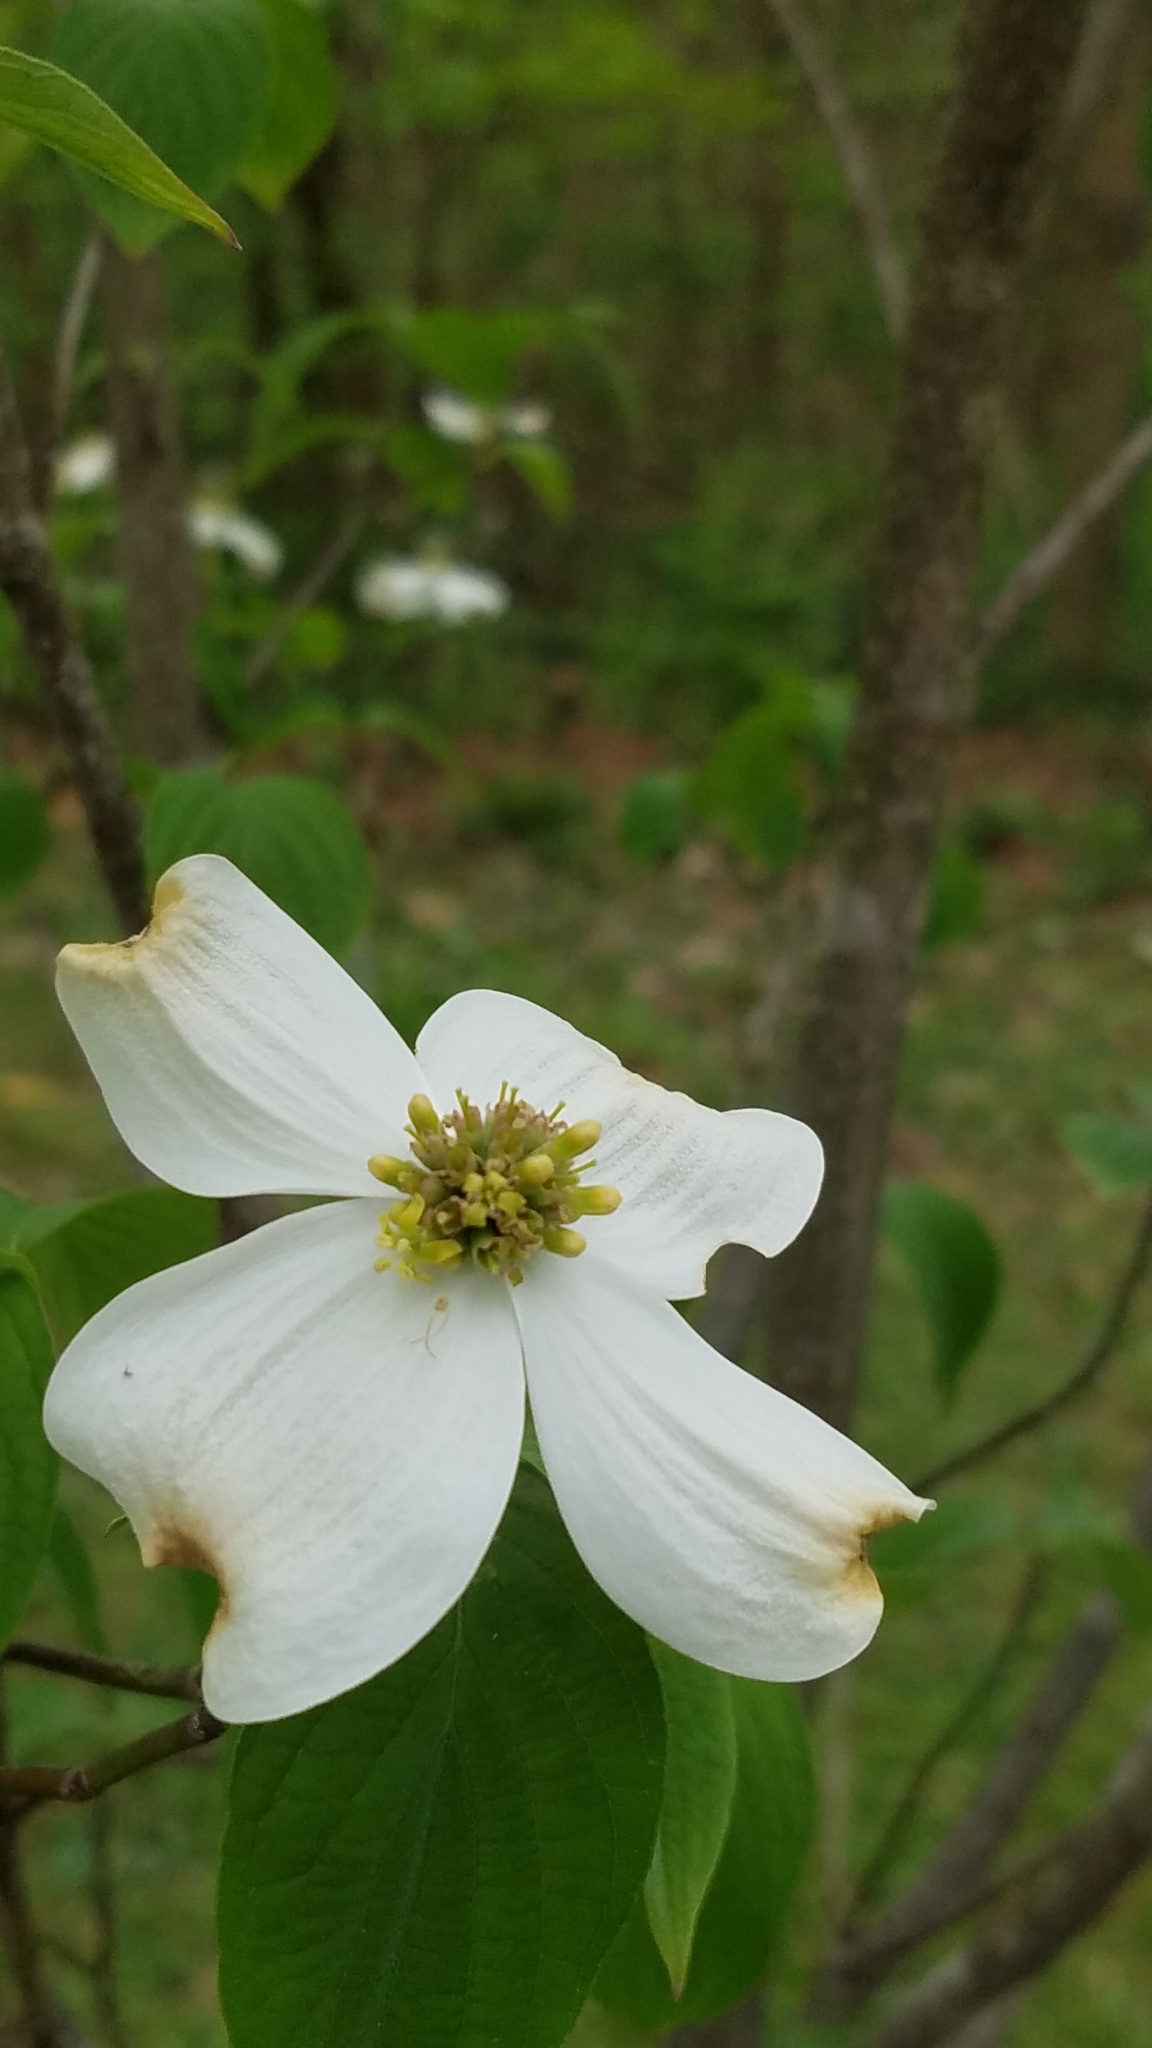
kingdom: Plantae
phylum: Tracheophyta
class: Magnoliopsida
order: Cornales
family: Cornaceae
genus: Cornus
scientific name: Cornus florida
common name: Flowering dogwood
